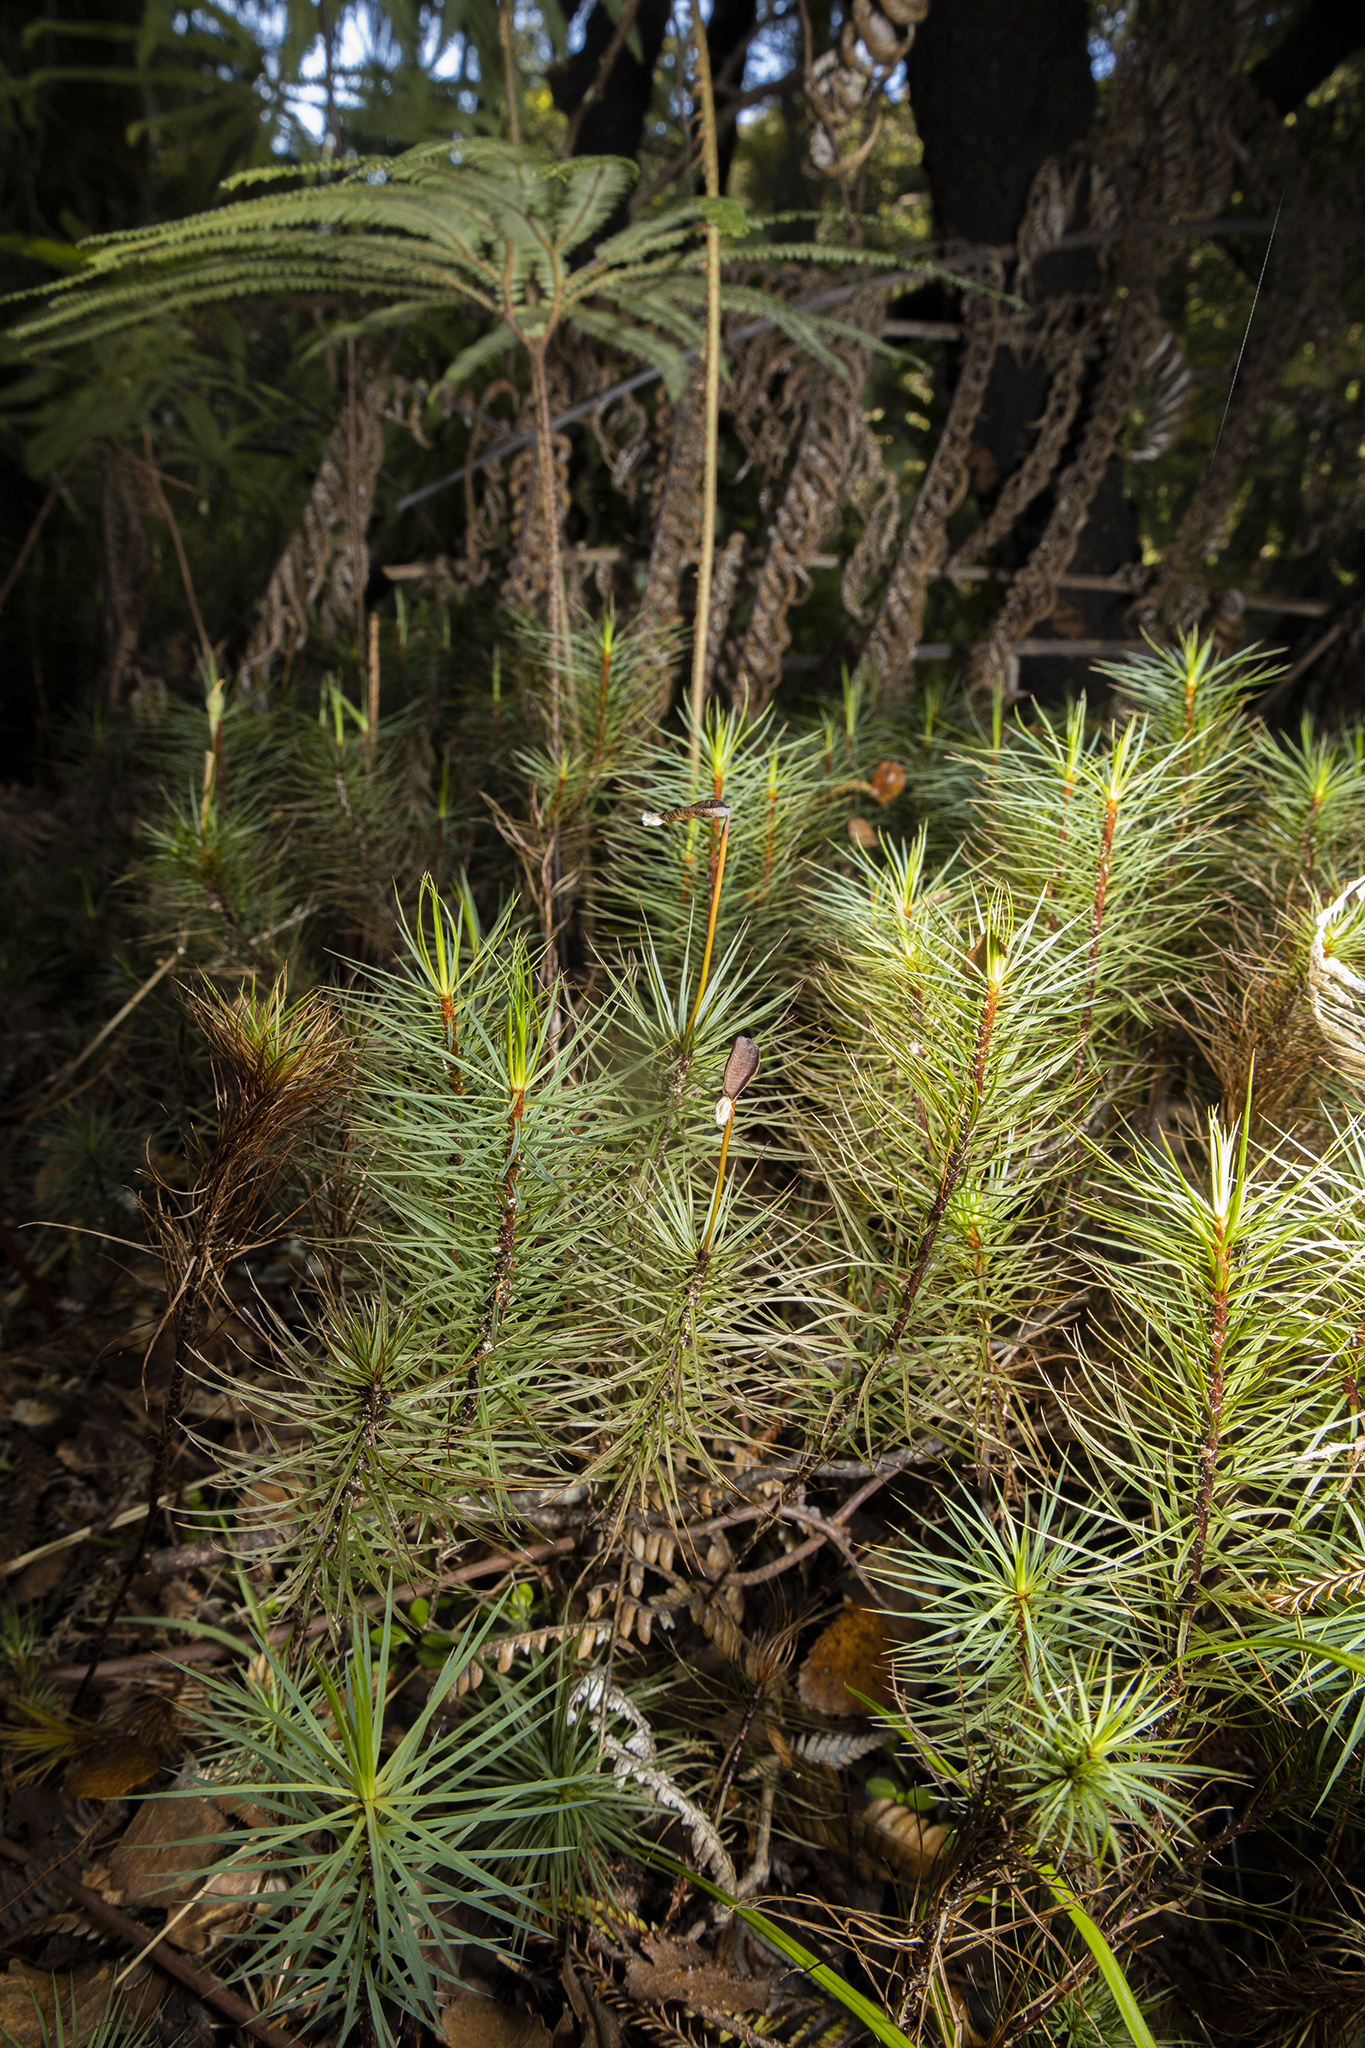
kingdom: Plantae
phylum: Bryophyta
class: Polytrichopsida
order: Polytrichales
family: Polytrichaceae
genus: Dawsonia
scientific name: Dawsonia superba
